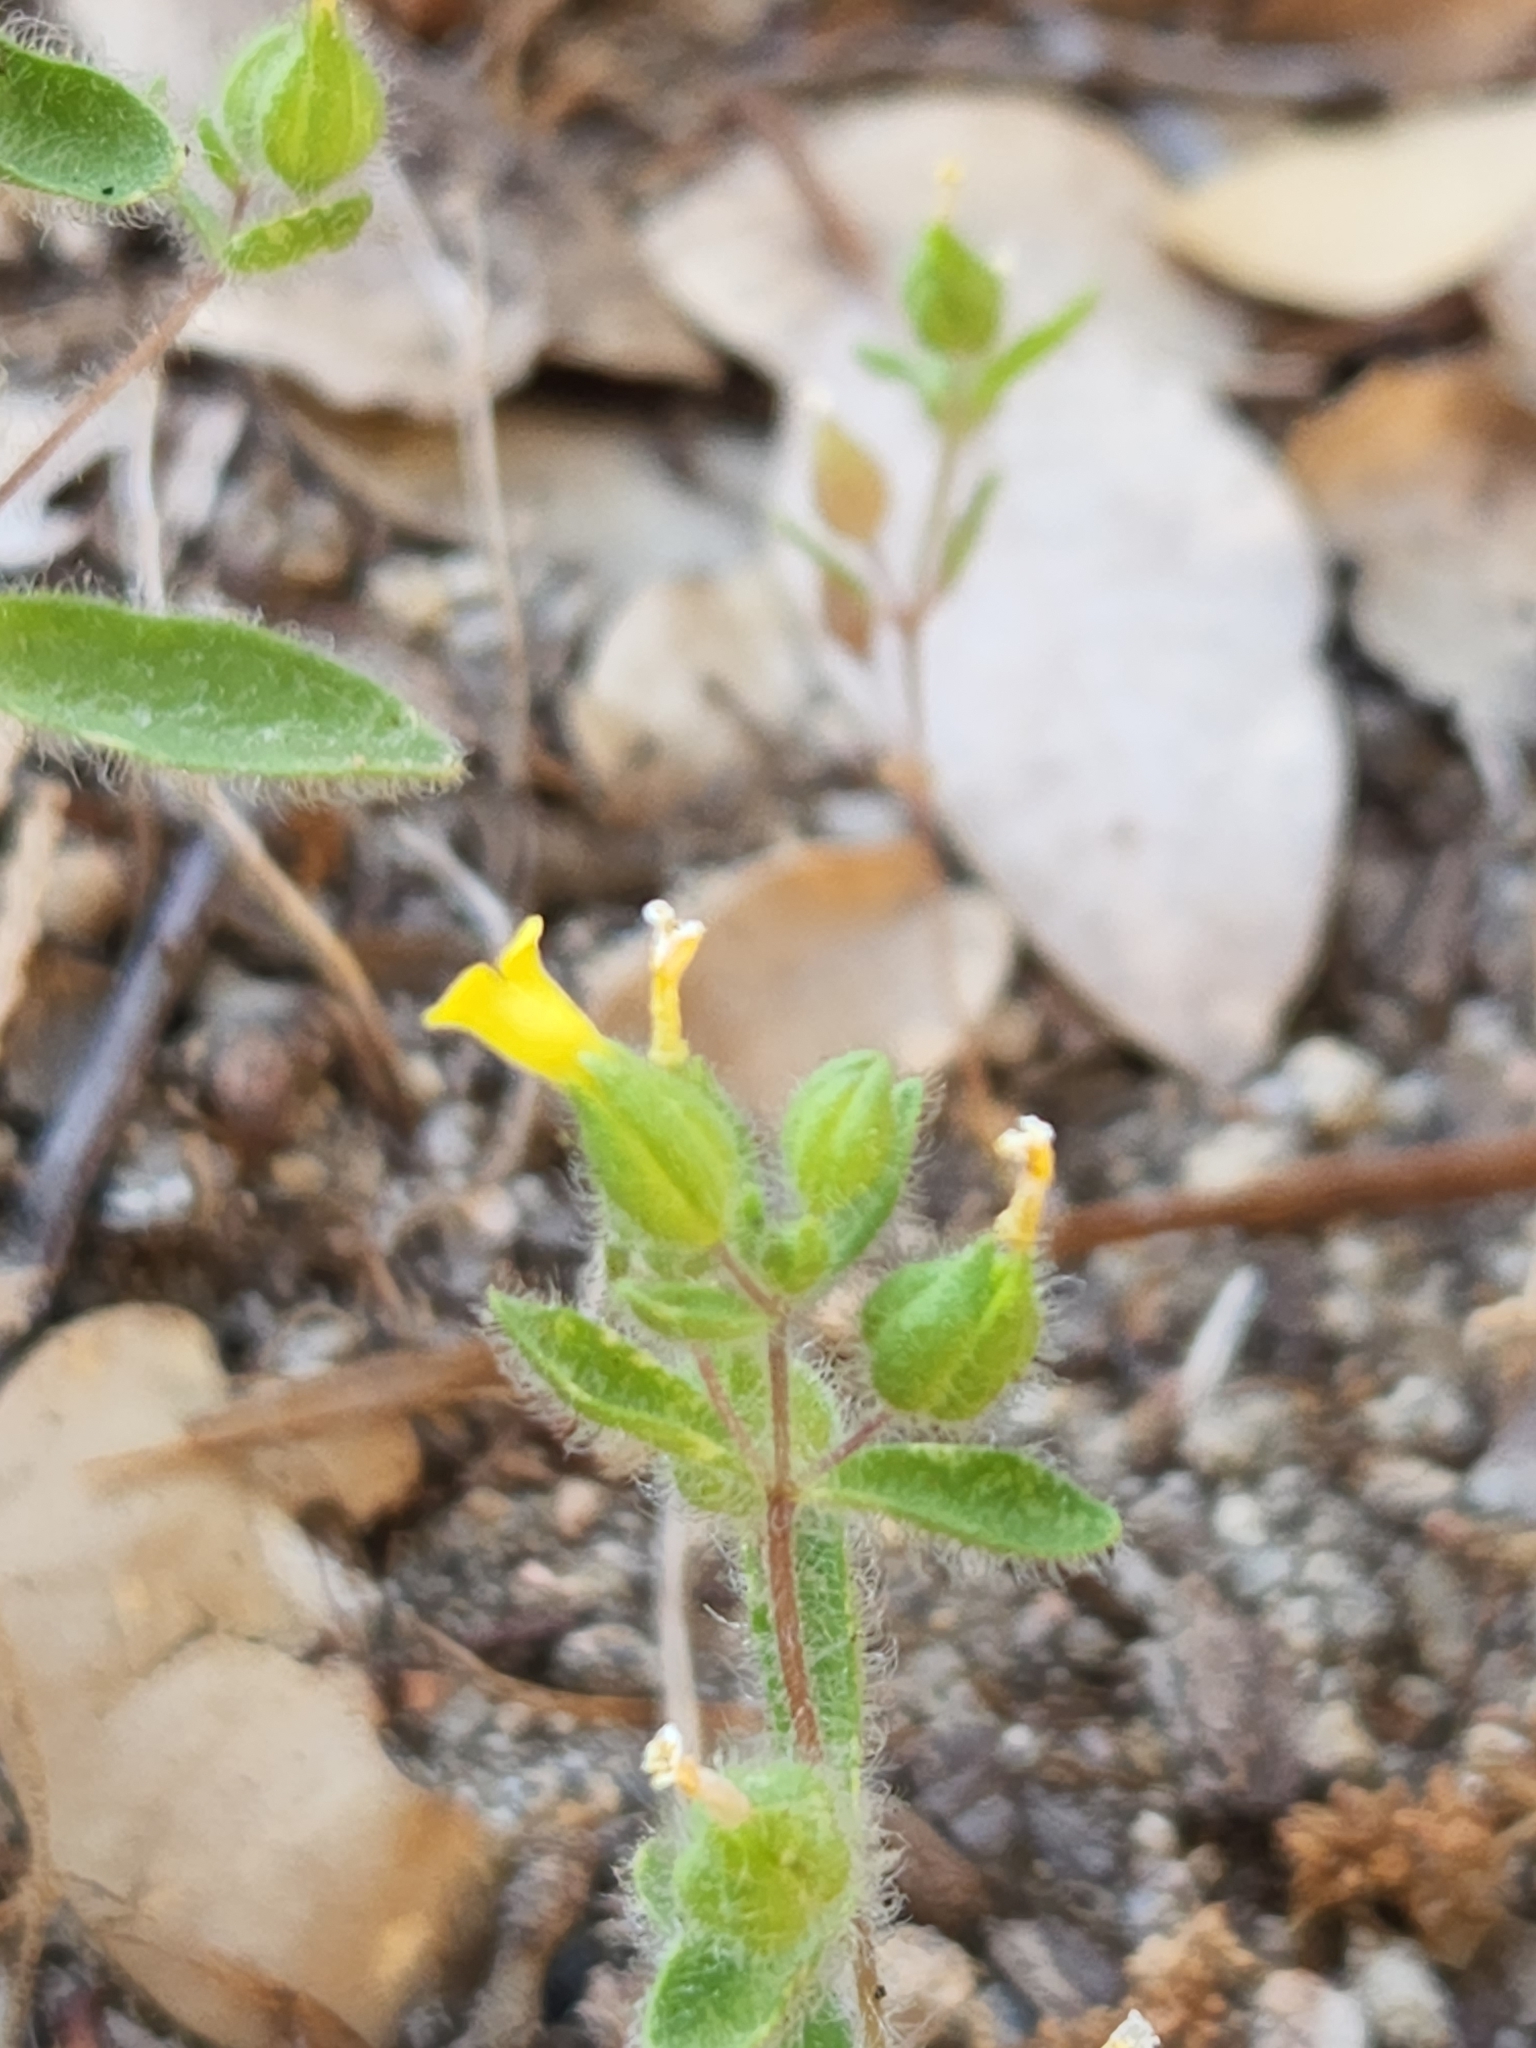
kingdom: Plantae
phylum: Tracheophyta
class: Magnoliopsida
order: Lamiales
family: Phrymaceae
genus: Mimetanthe
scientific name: Mimetanthe pilosa
